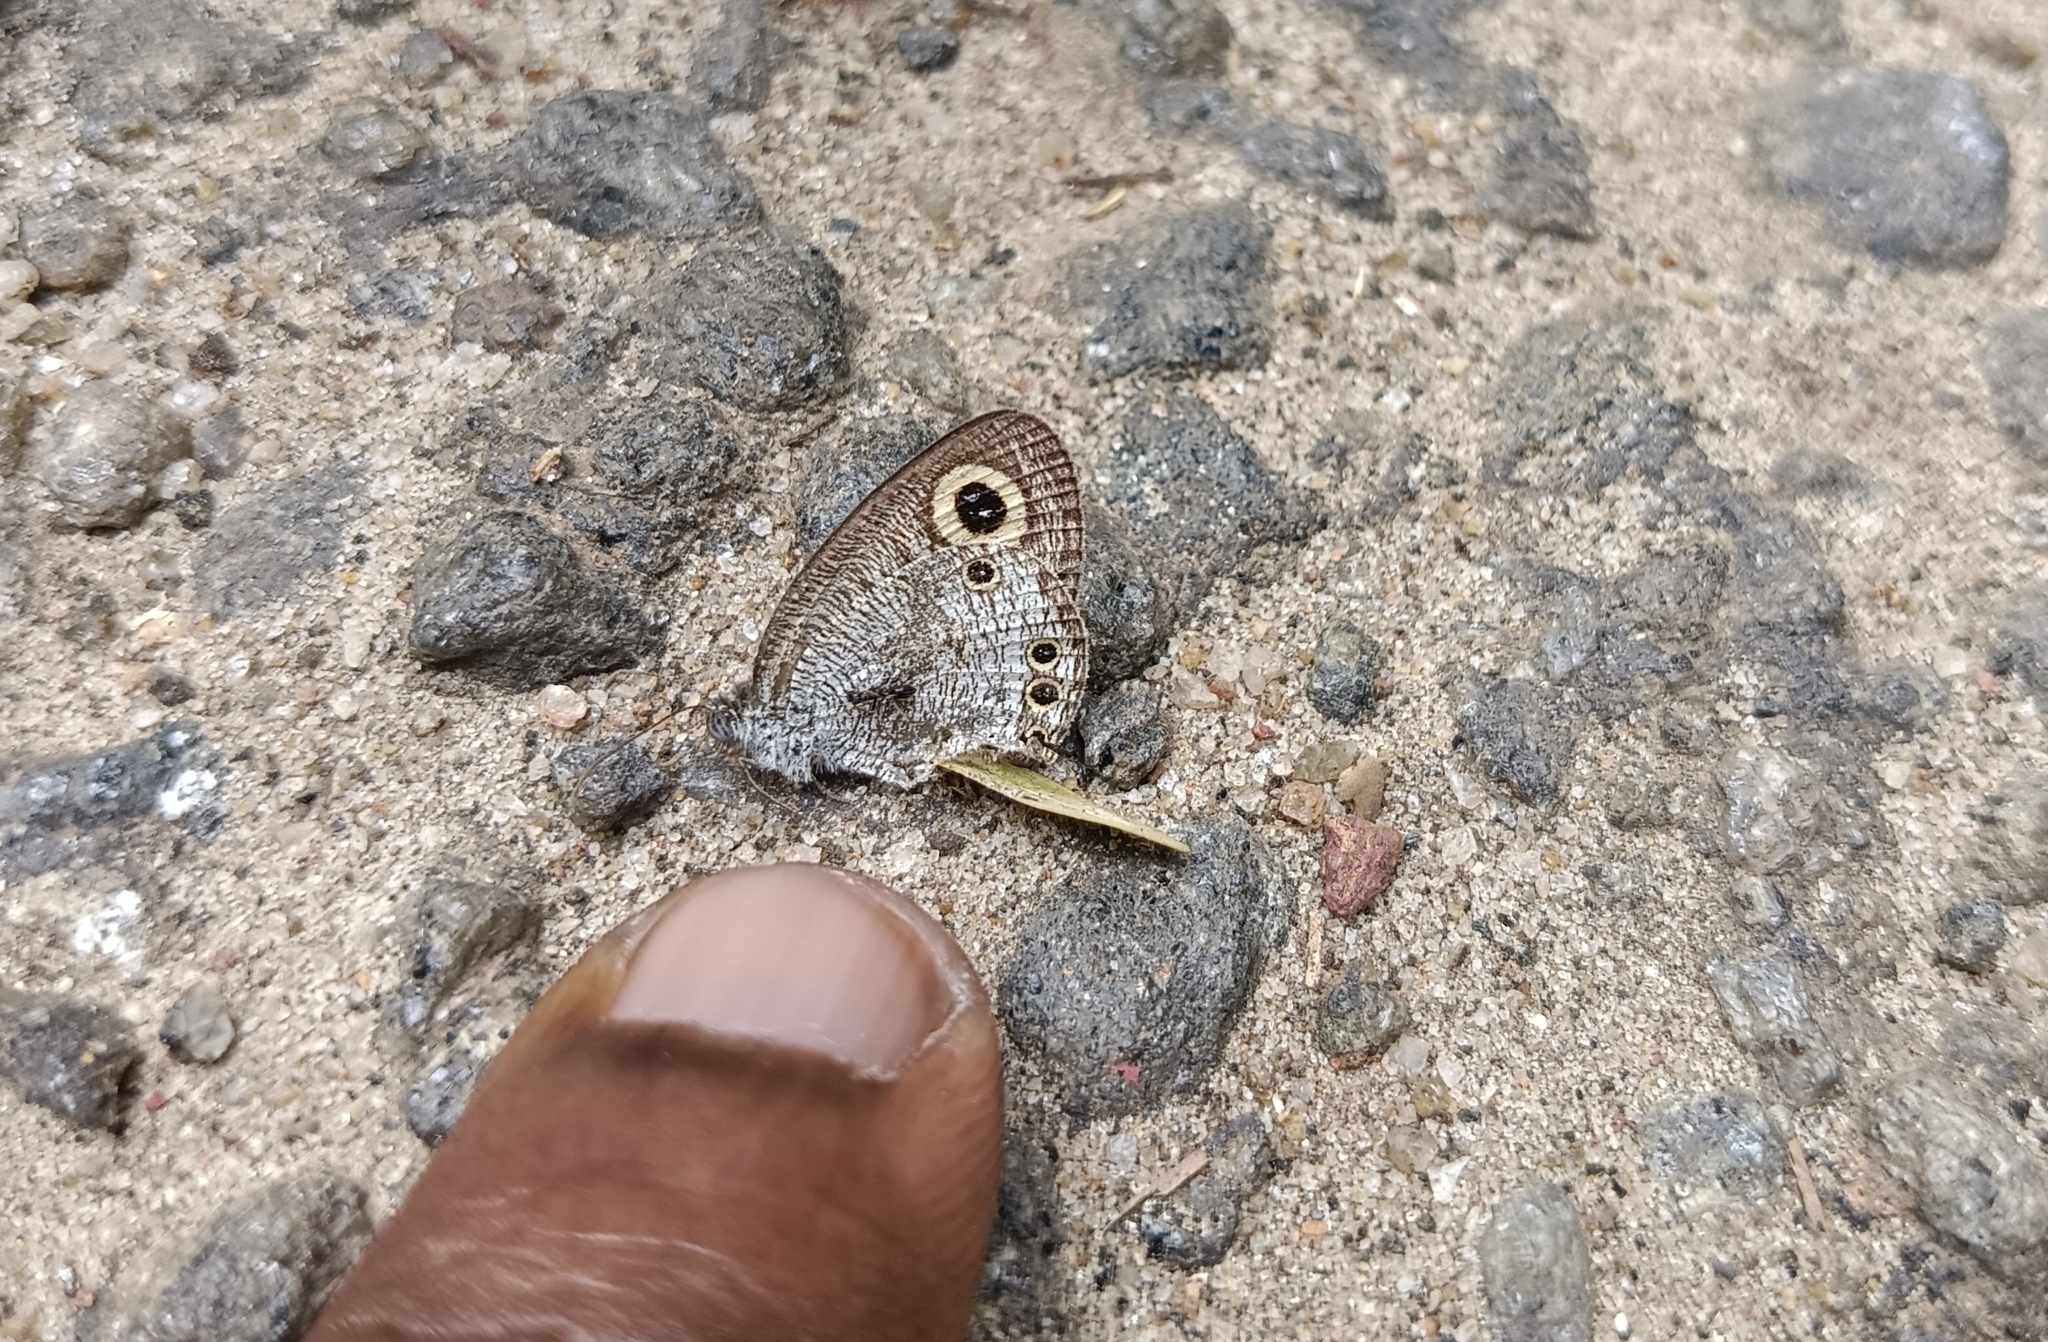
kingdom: Animalia
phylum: Arthropoda
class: Insecta
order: Lepidoptera
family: Nymphalidae
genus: Ypthima
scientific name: Ypthima huebneri
